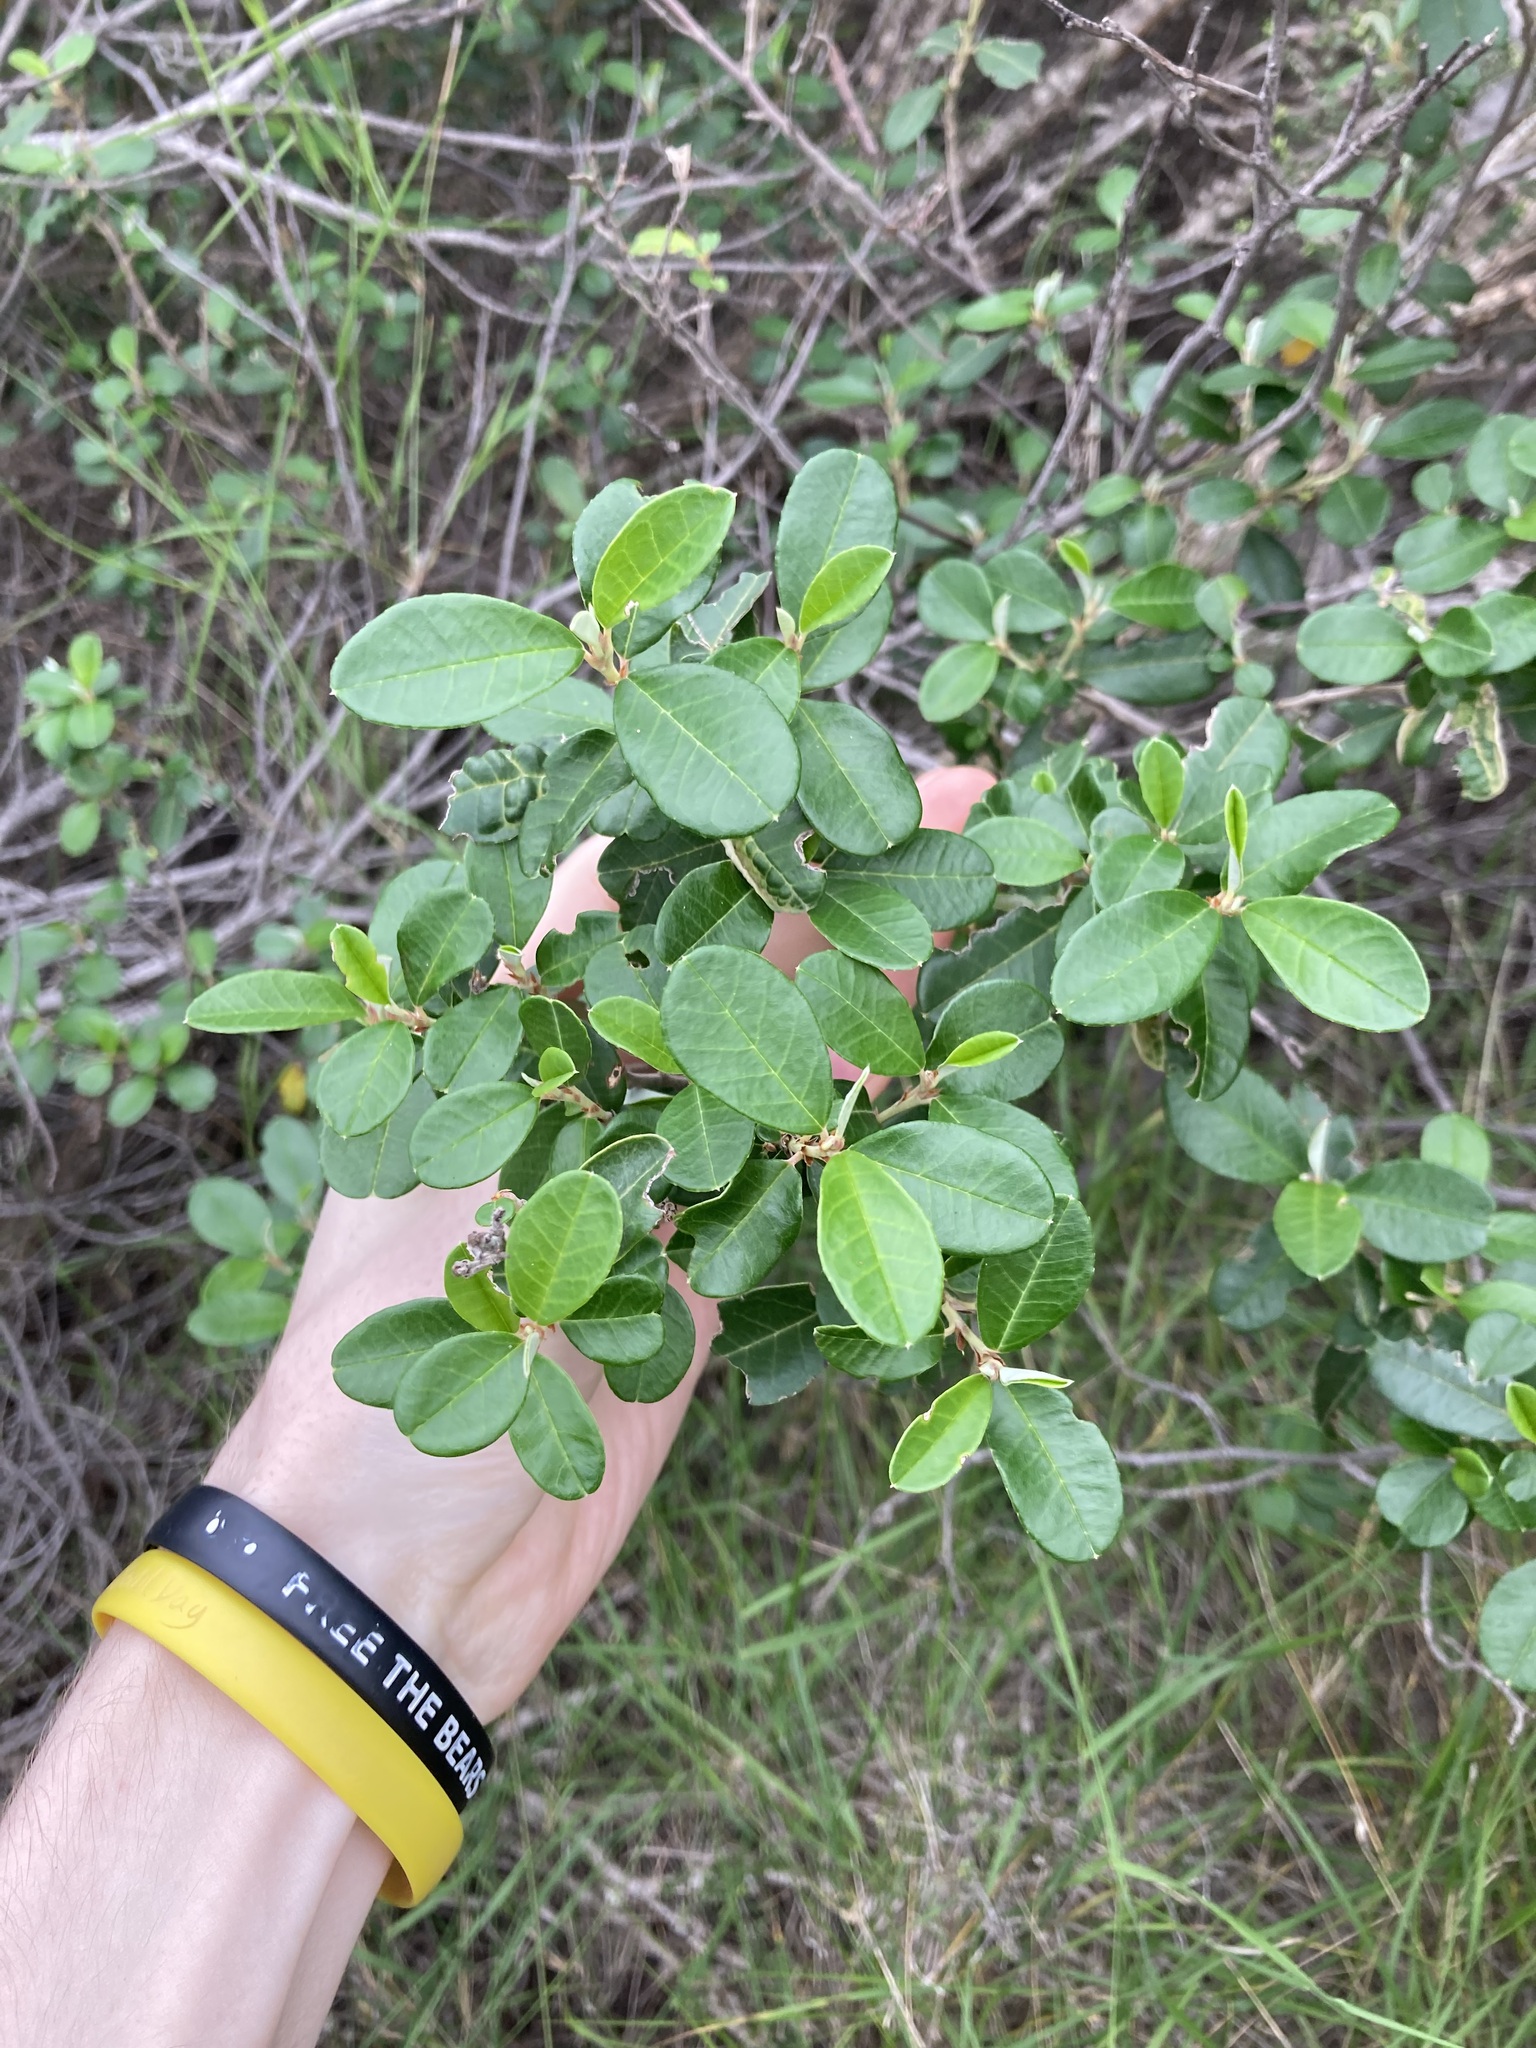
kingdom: Plantae
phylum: Tracheophyta
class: Magnoliopsida
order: Rosales
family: Rhamnaceae
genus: Spyridium
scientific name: Spyridium globulosum
